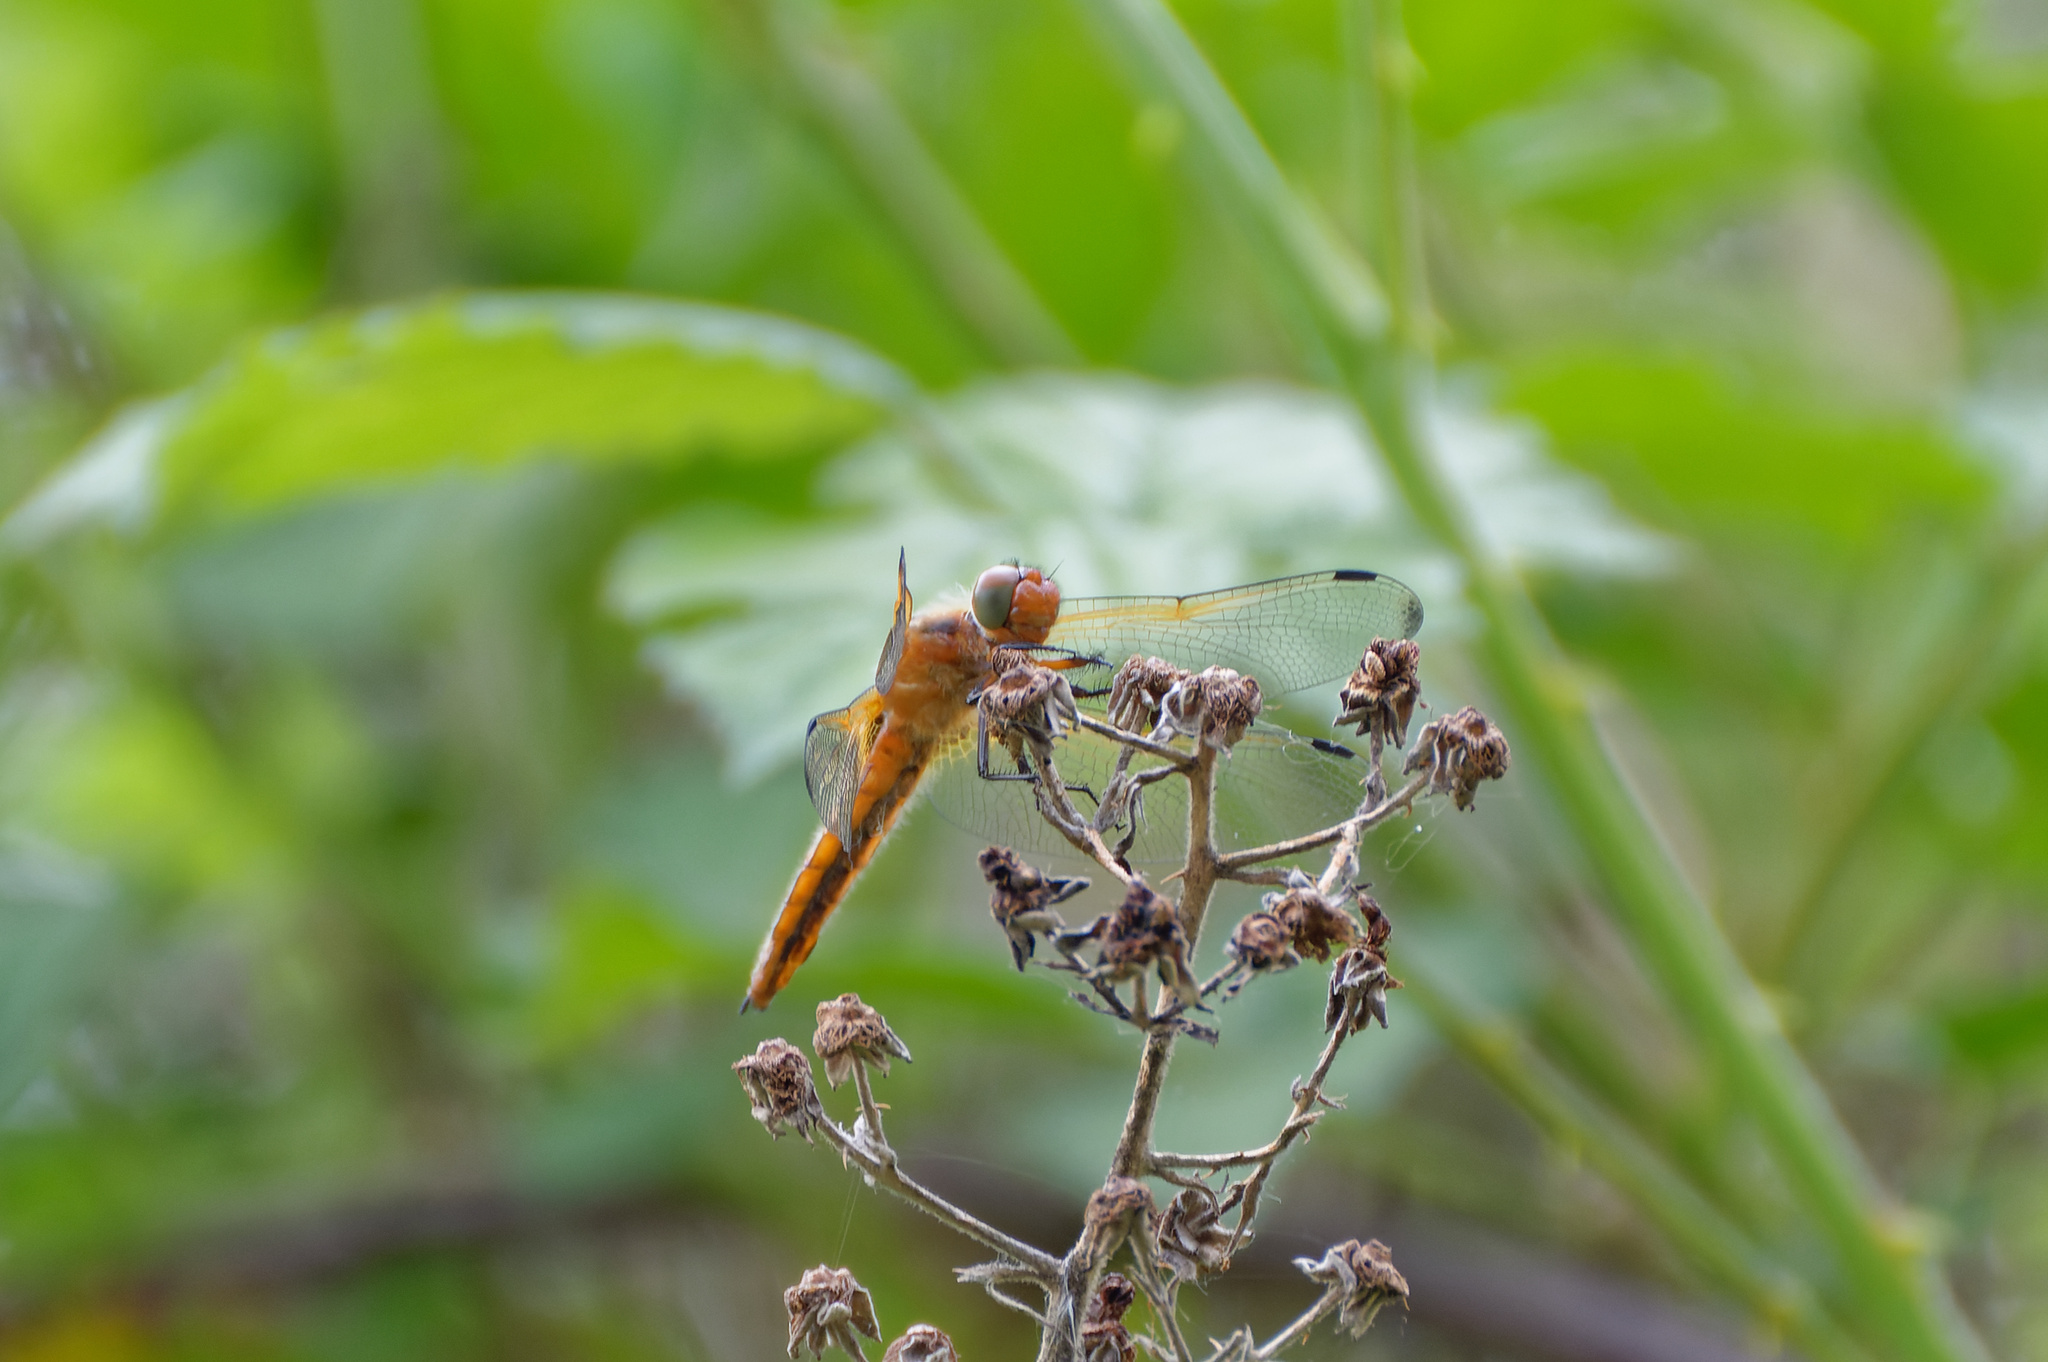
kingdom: Animalia
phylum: Arthropoda
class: Insecta
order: Odonata
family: Libellulidae
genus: Libellula
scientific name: Libellula fulva
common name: Blue chaser
